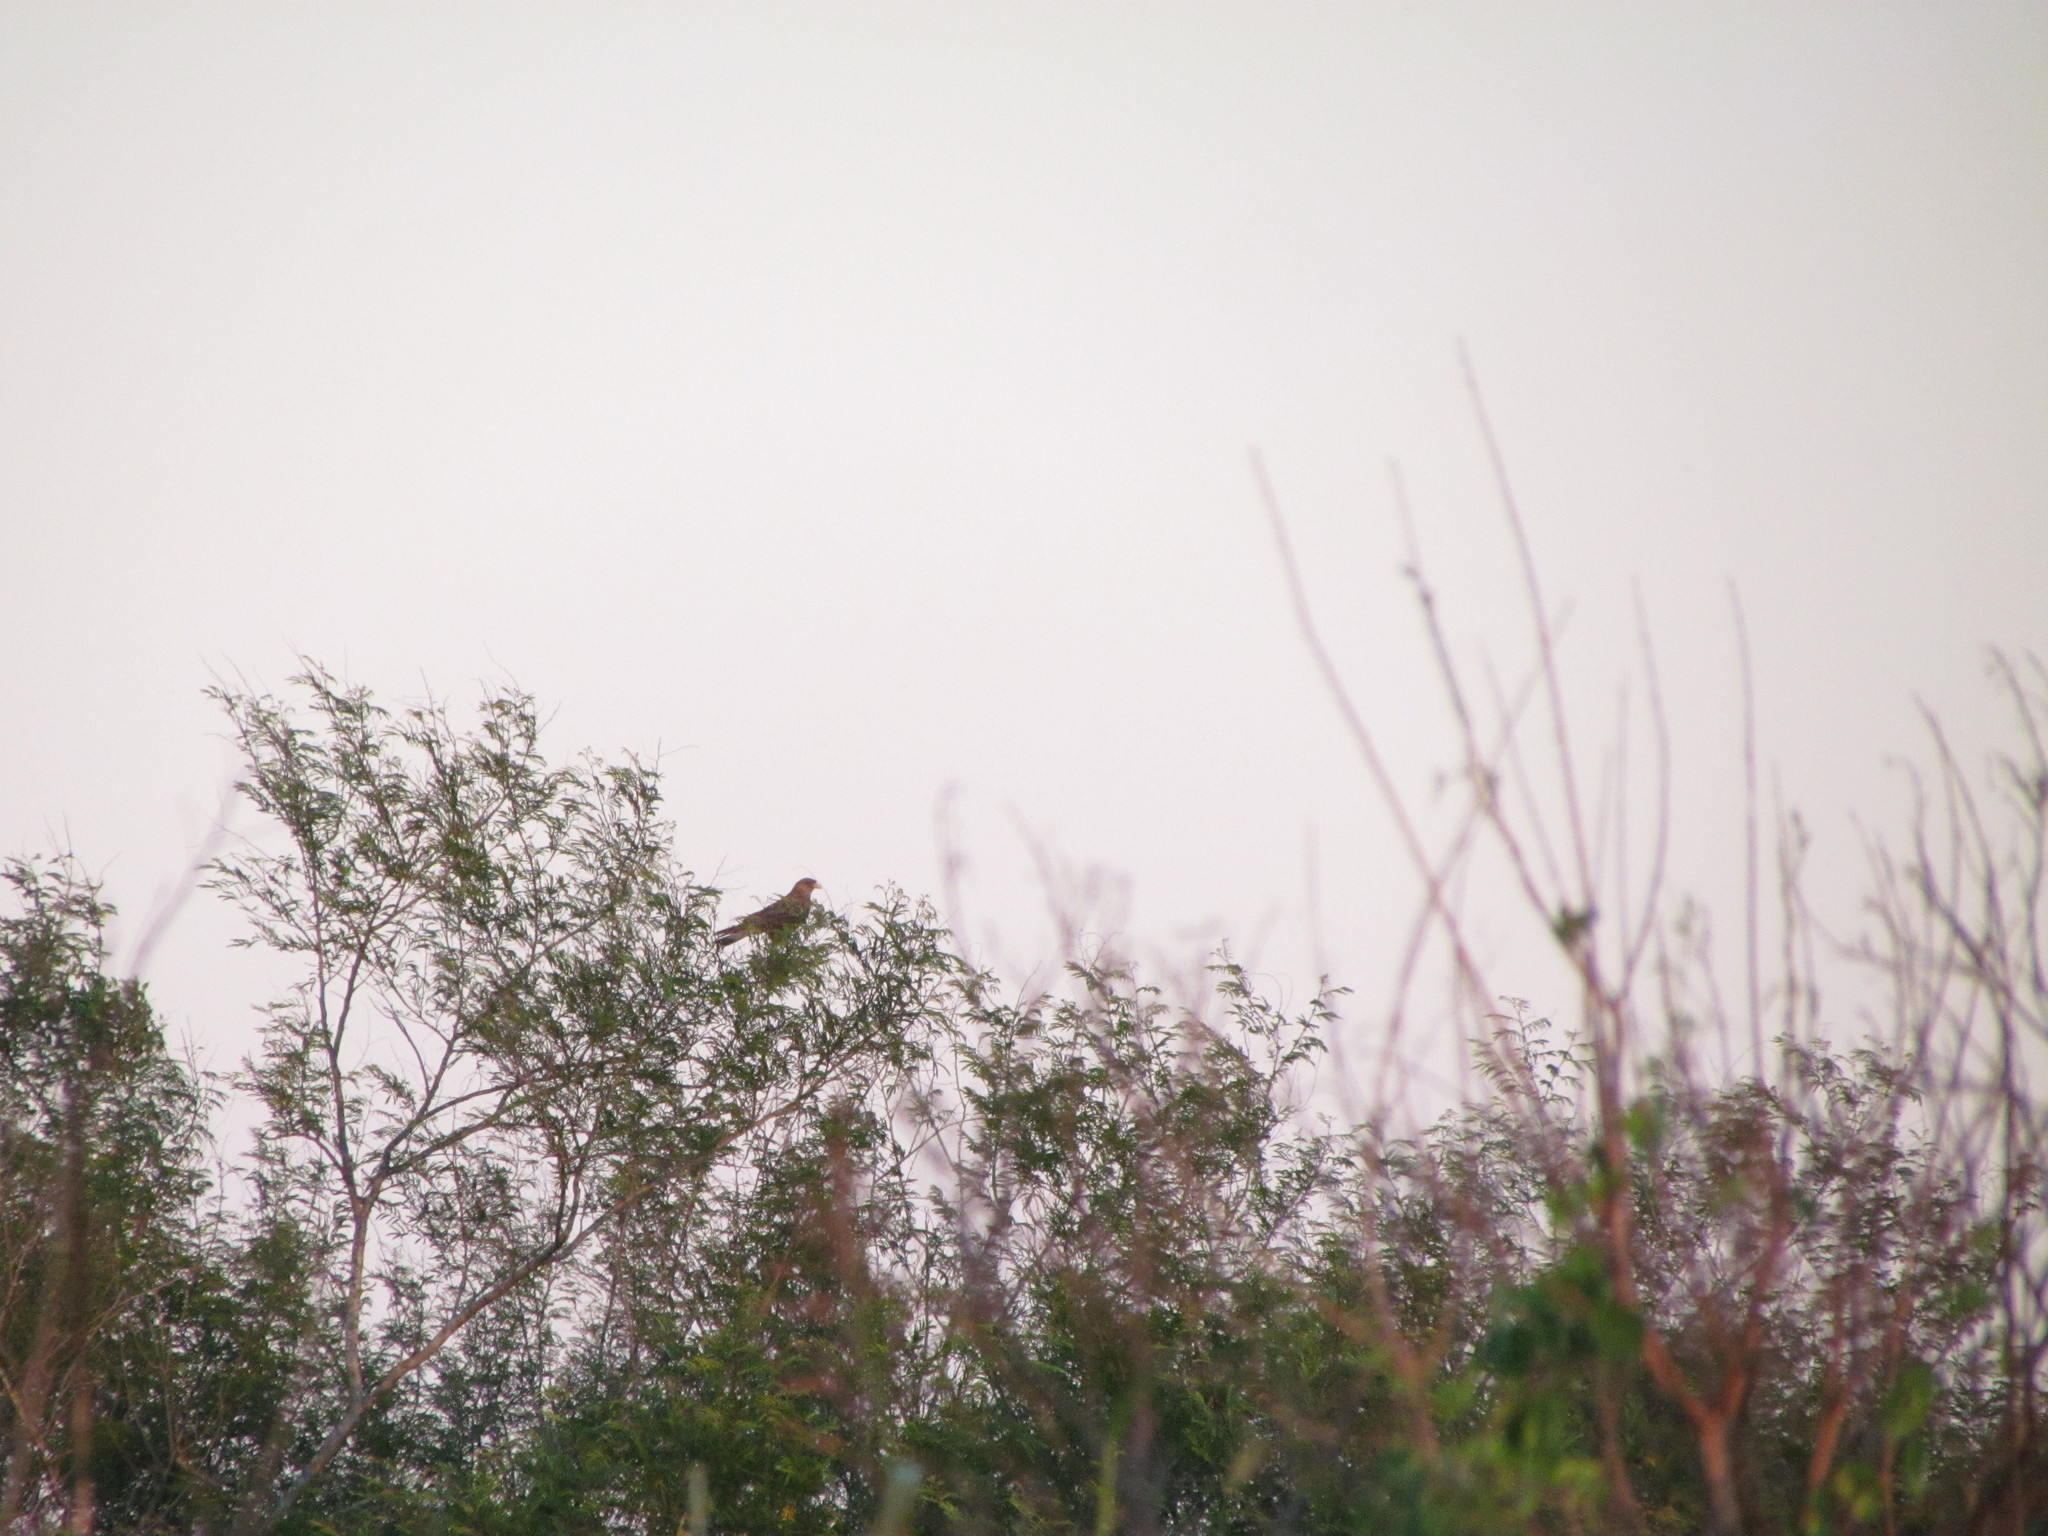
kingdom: Animalia
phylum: Chordata
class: Aves
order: Falconiformes
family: Falconidae
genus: Daptrius
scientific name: Daptrius
